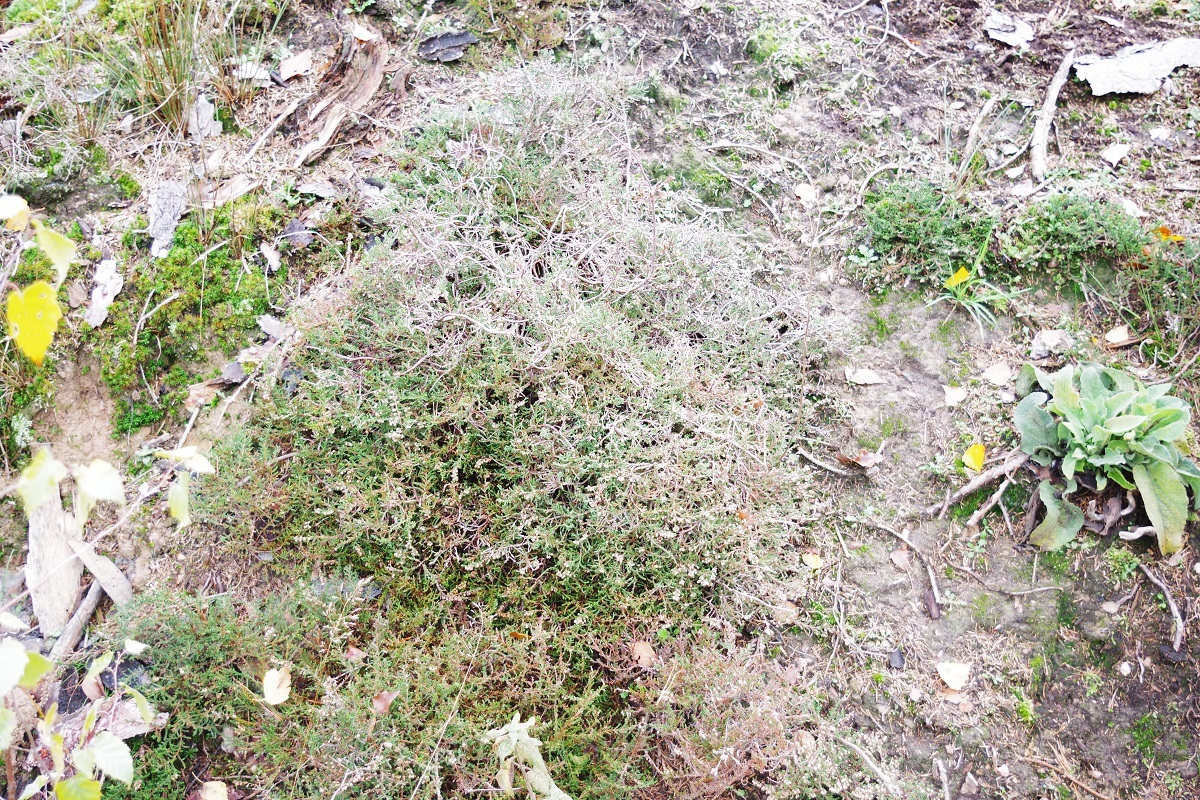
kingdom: Plantae
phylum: Tracheophyta
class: Magnoliopsida
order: Ericales
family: Ericaceae
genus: Calluna
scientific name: Calluna vulgaris
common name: Heather
